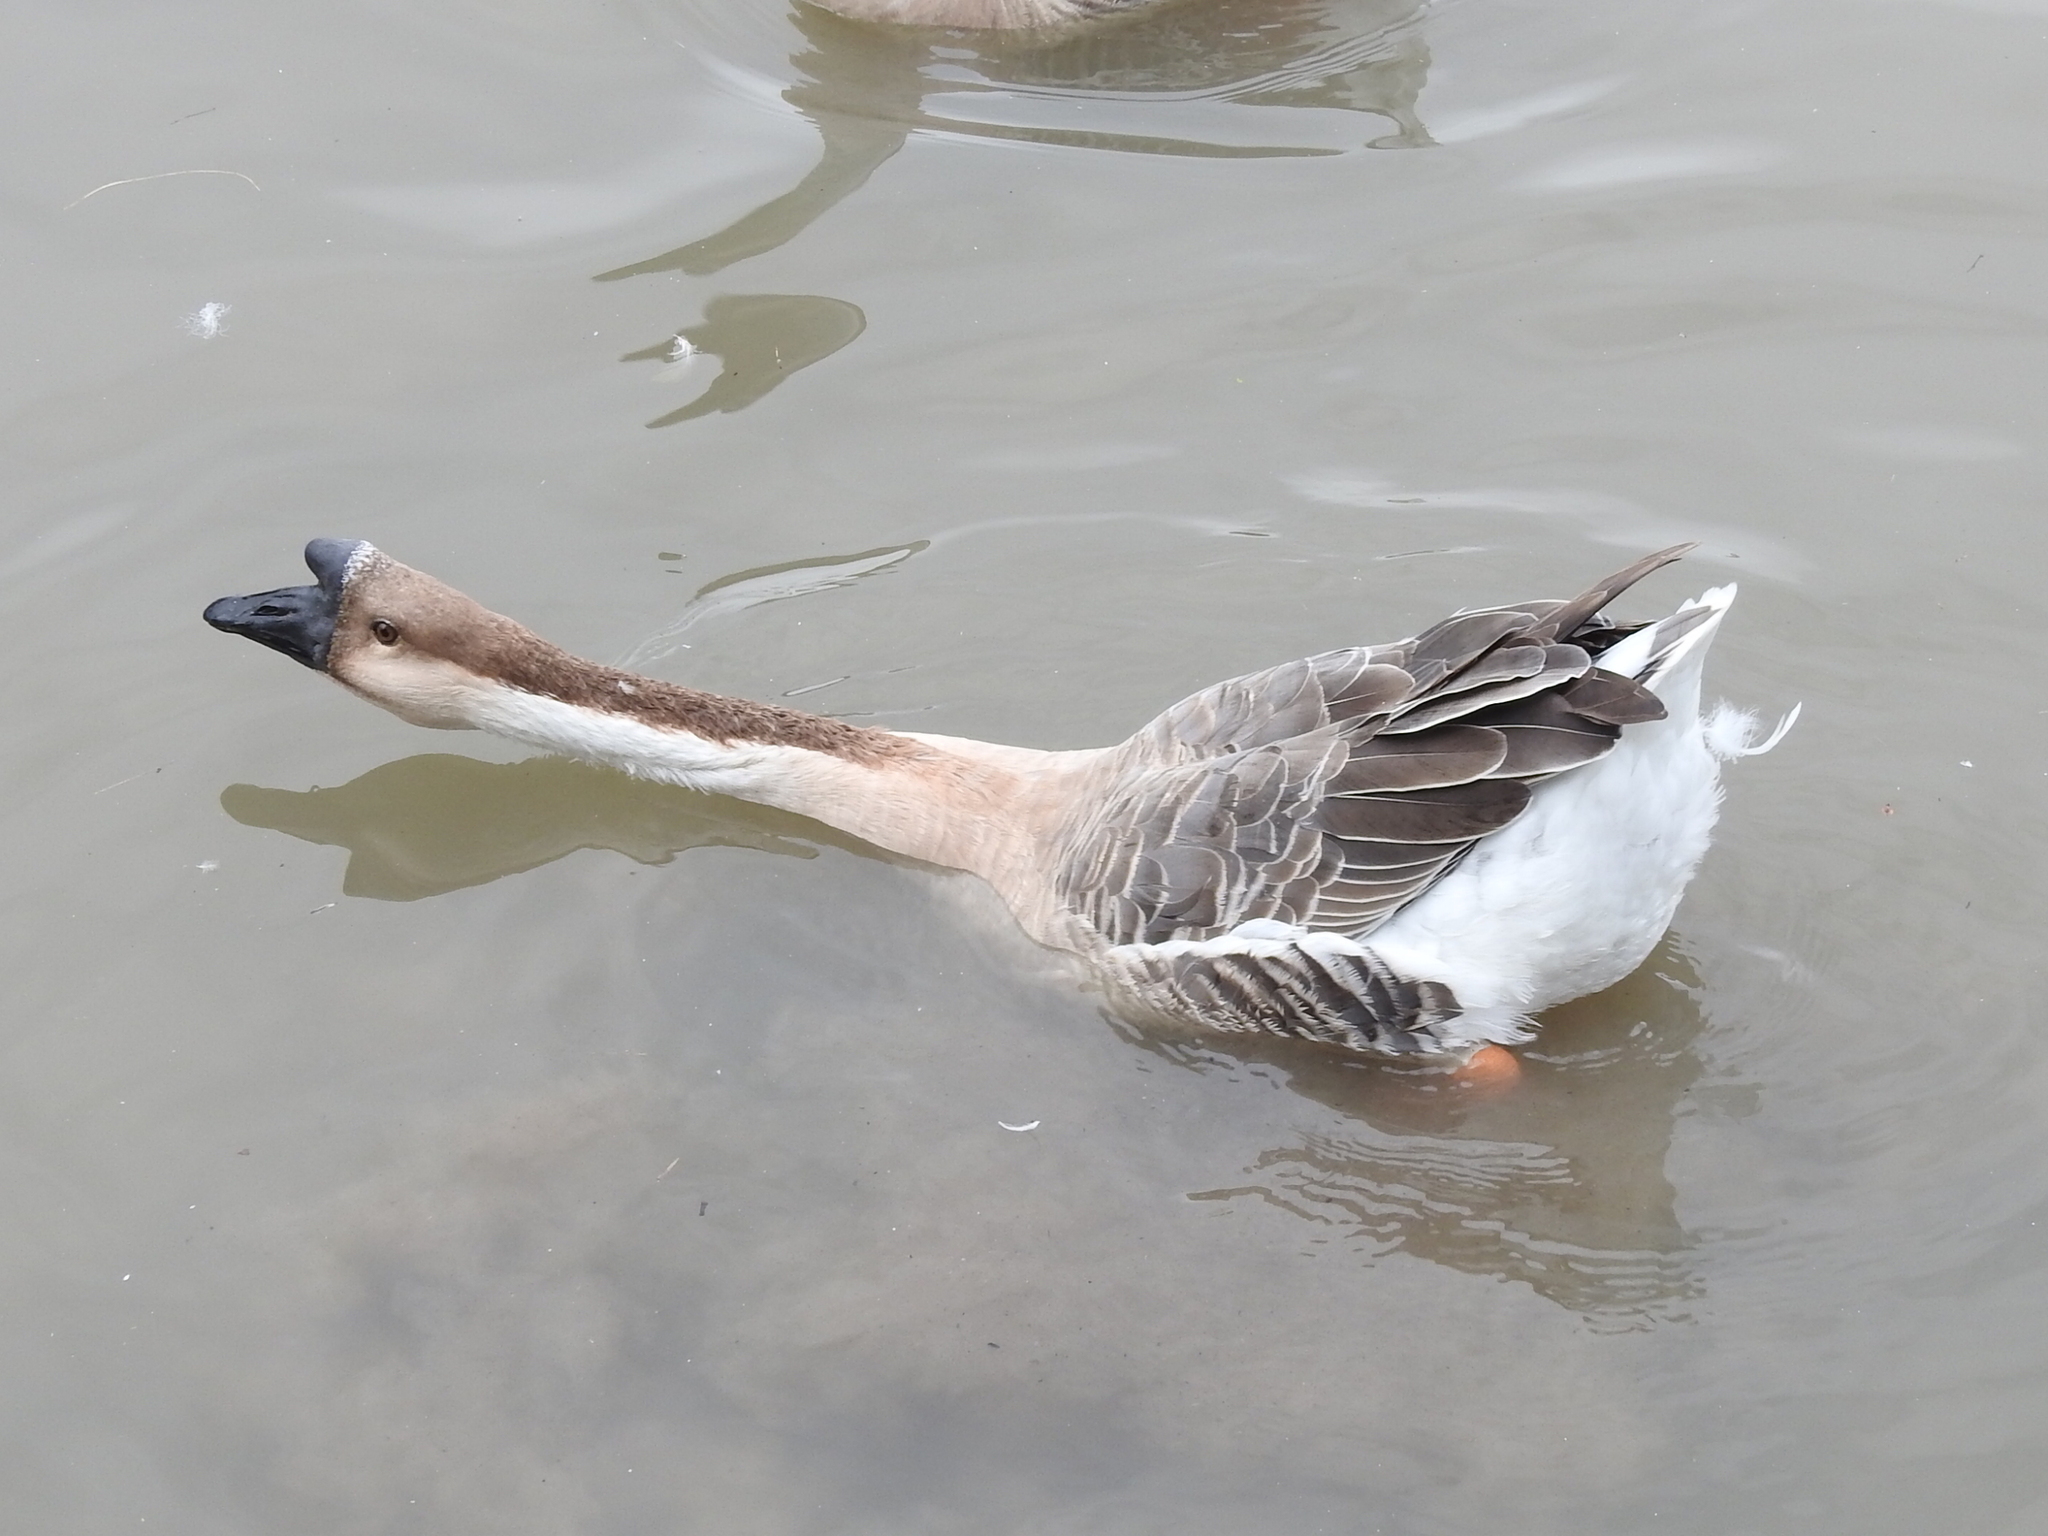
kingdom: Animalia
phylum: Chordata
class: Aves
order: Anseriformes
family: Anatidae
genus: Anser
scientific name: Anser cygnoides
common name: Swan goose
